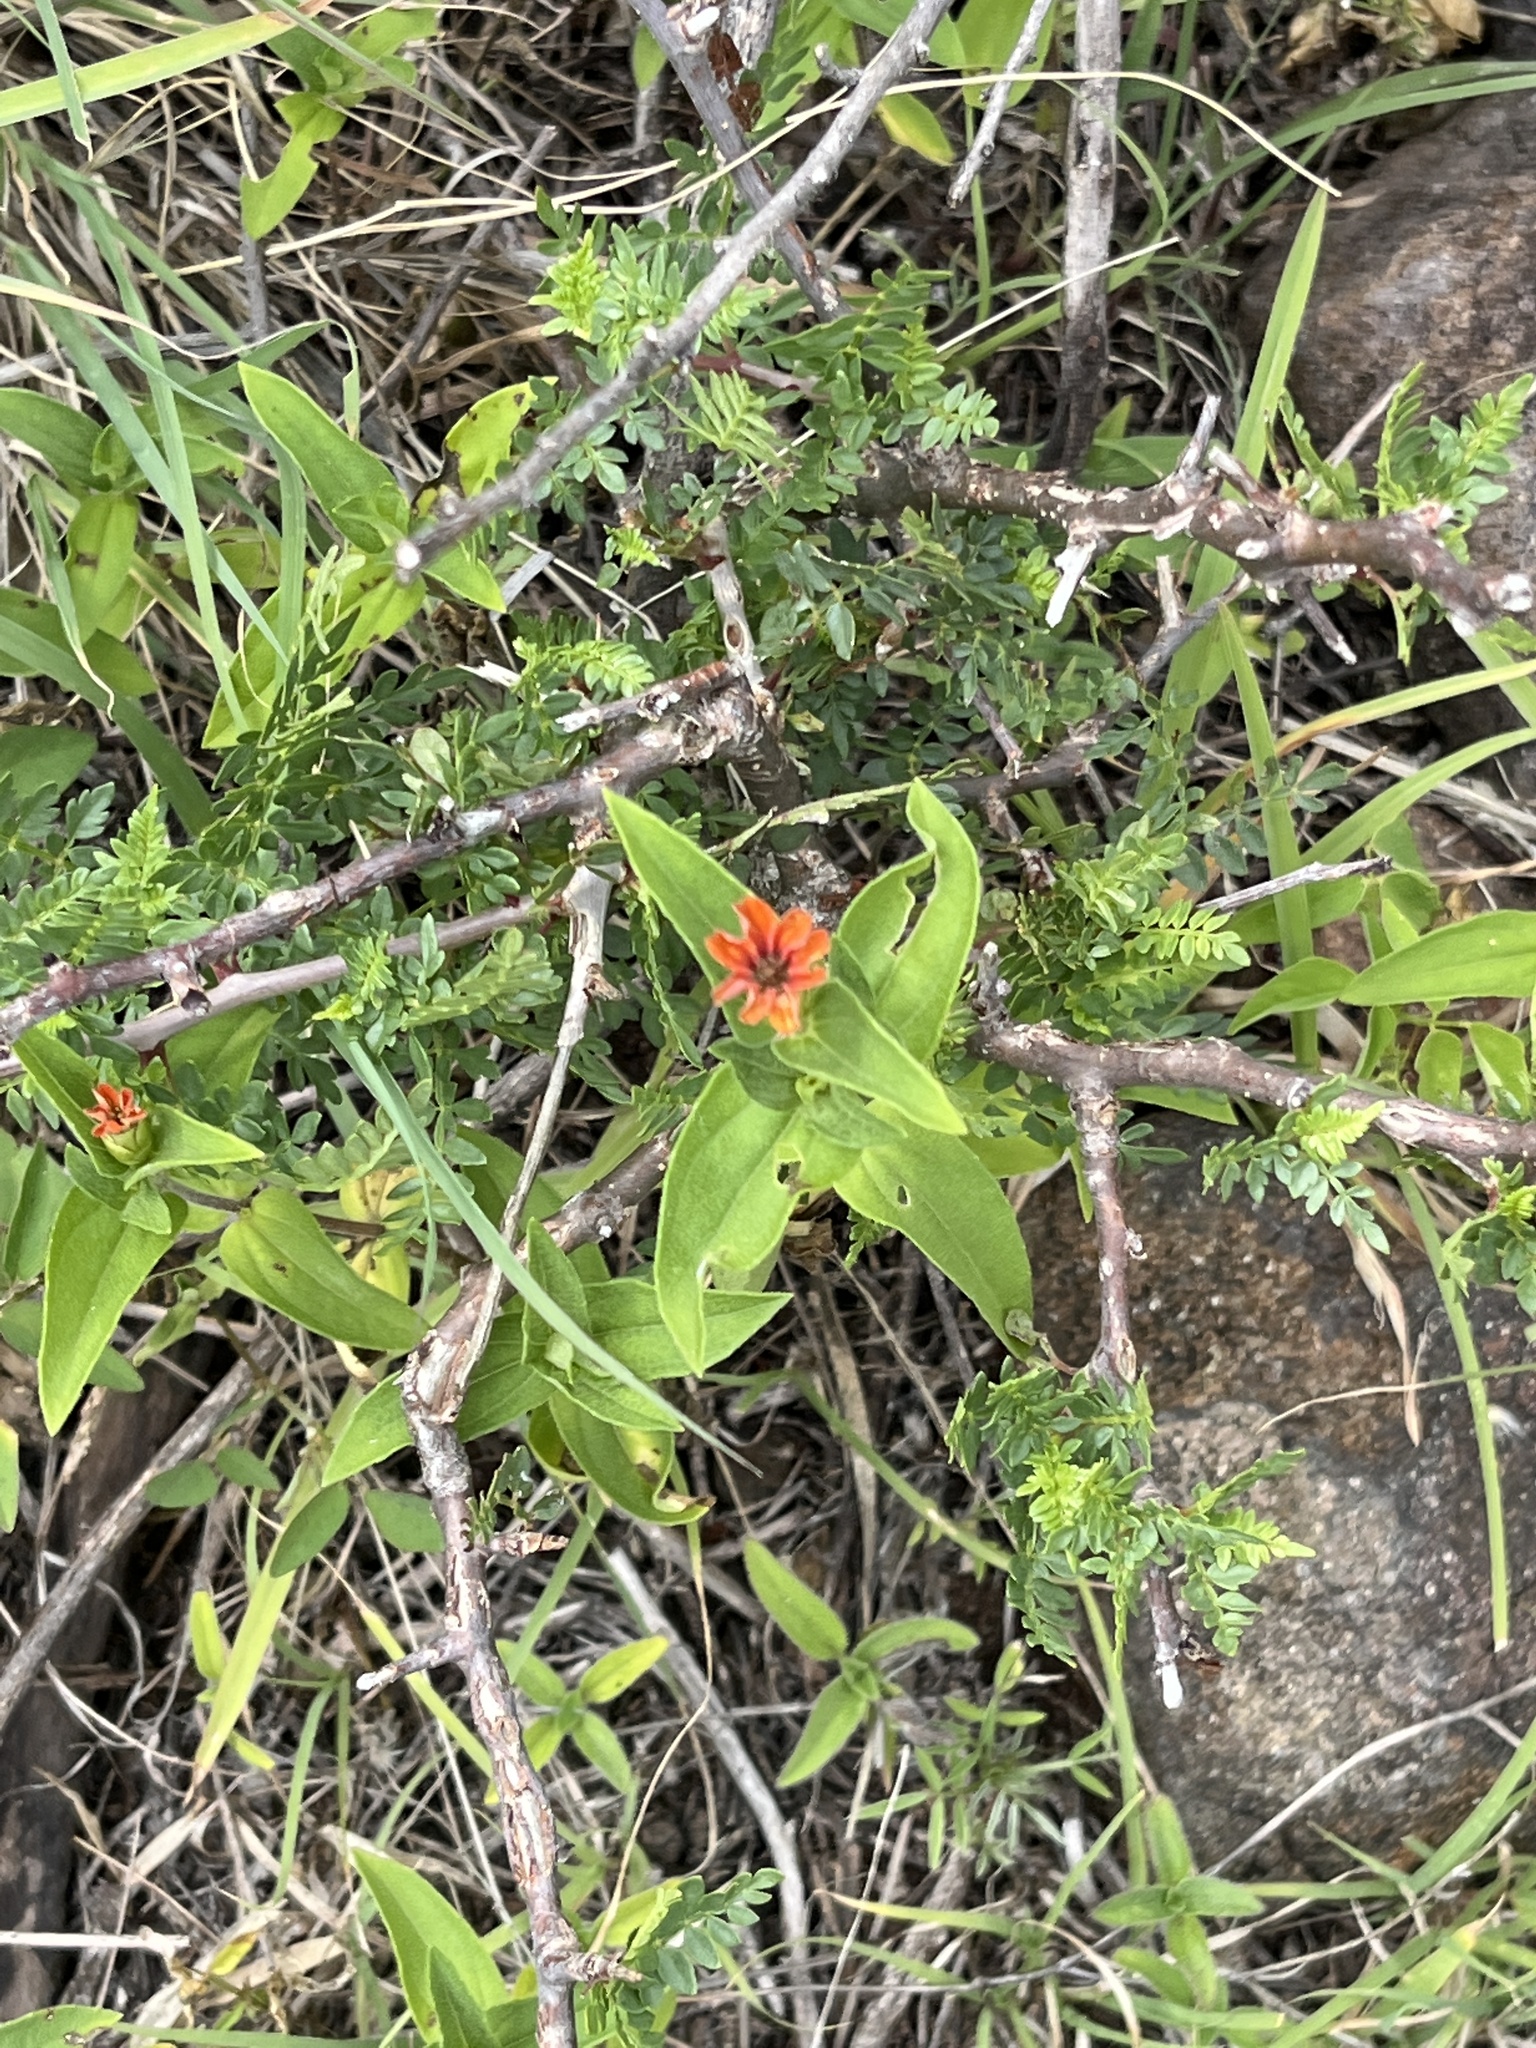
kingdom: Plantae
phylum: Tracheophyta
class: Magnoliopsida
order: Asterales
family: Asteraceae
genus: Zinnia
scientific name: Zinnia peruviana
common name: Peruvian zinnia
